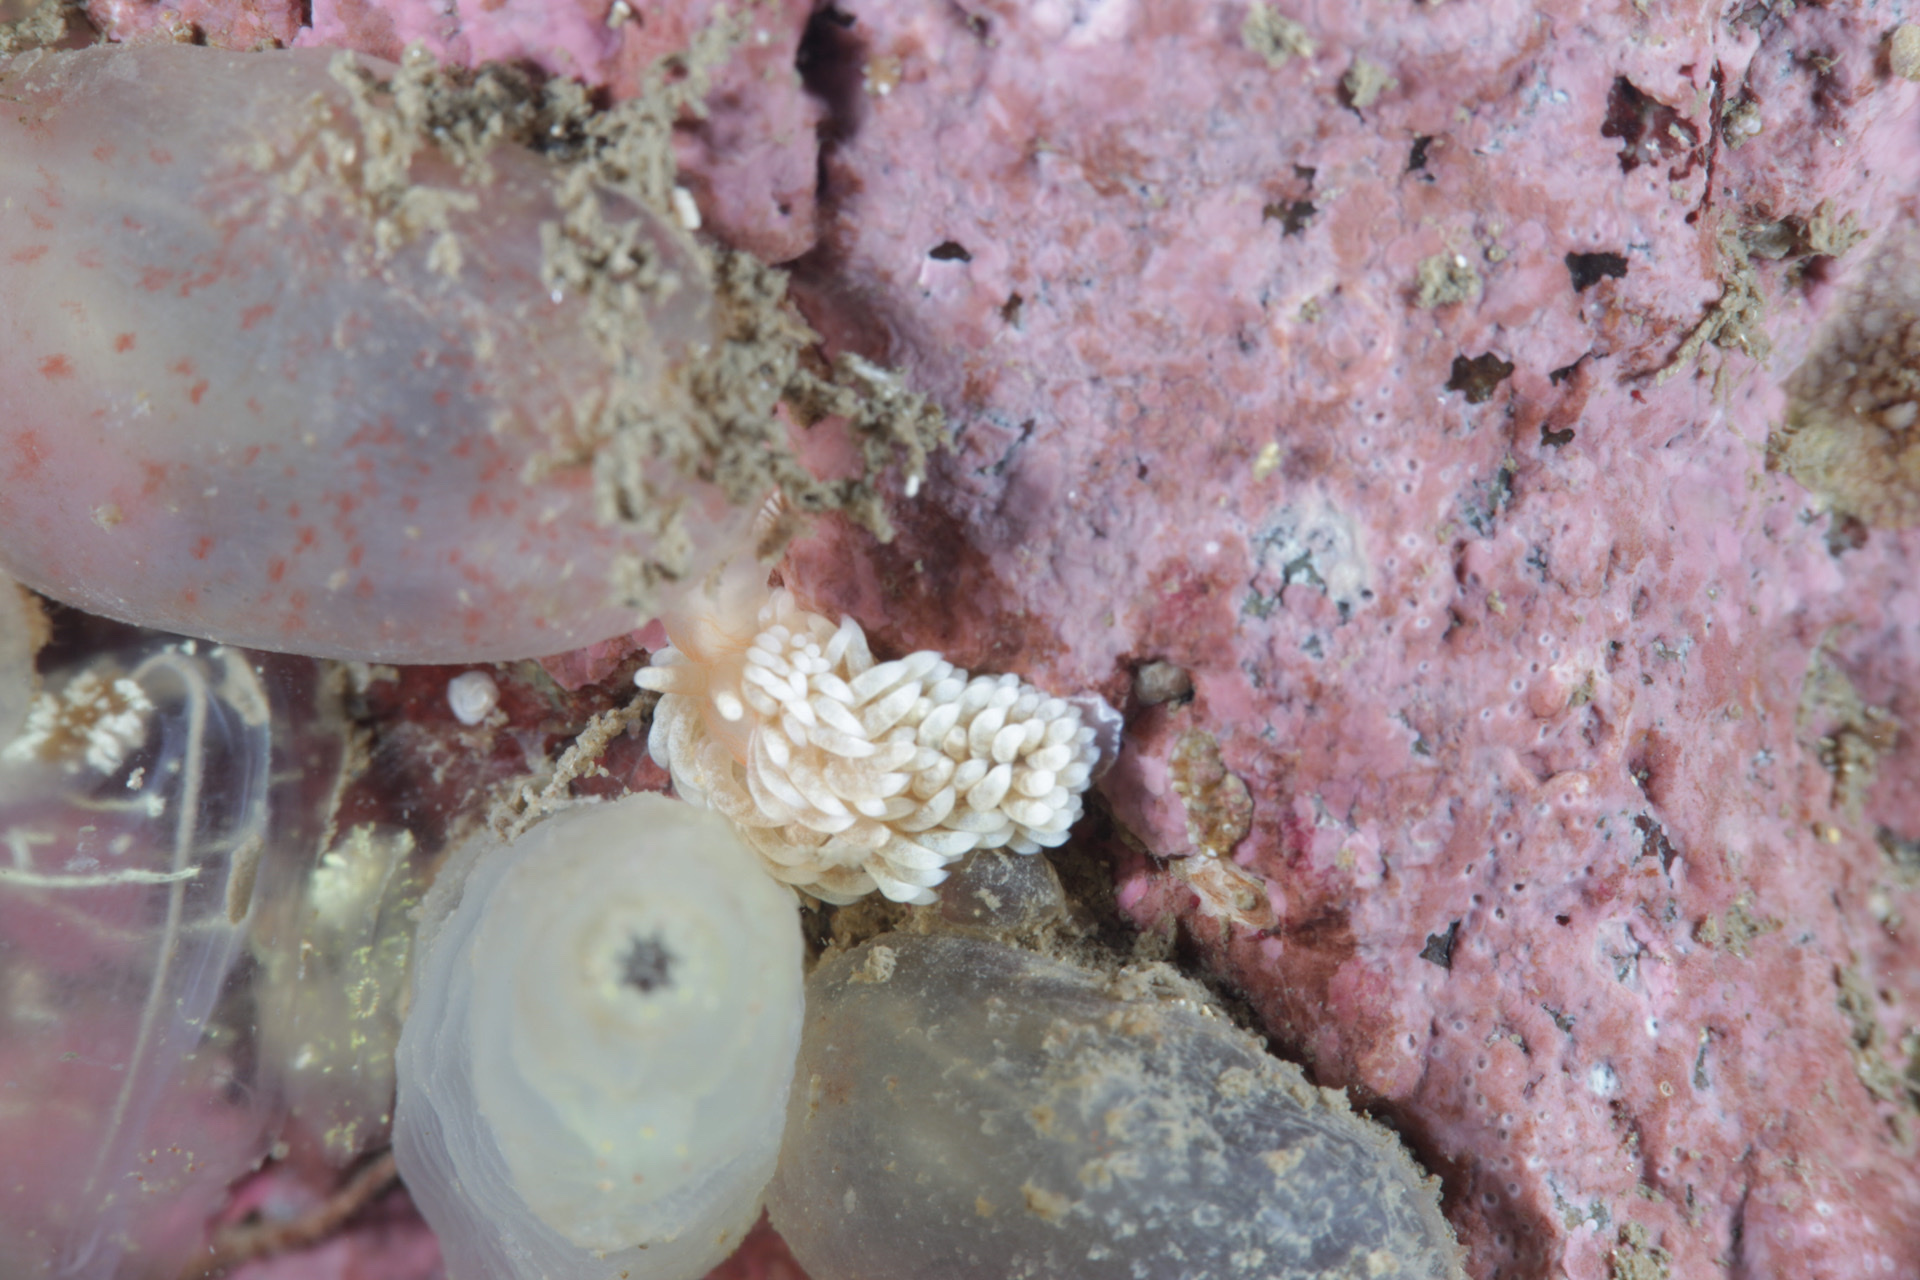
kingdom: Animalia
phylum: Mollusca
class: Gastropoda
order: Nudibranchia
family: Aeolidiidae
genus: Aeolidiella
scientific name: Aeolidiella glauca
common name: Orange-brown aeolid
